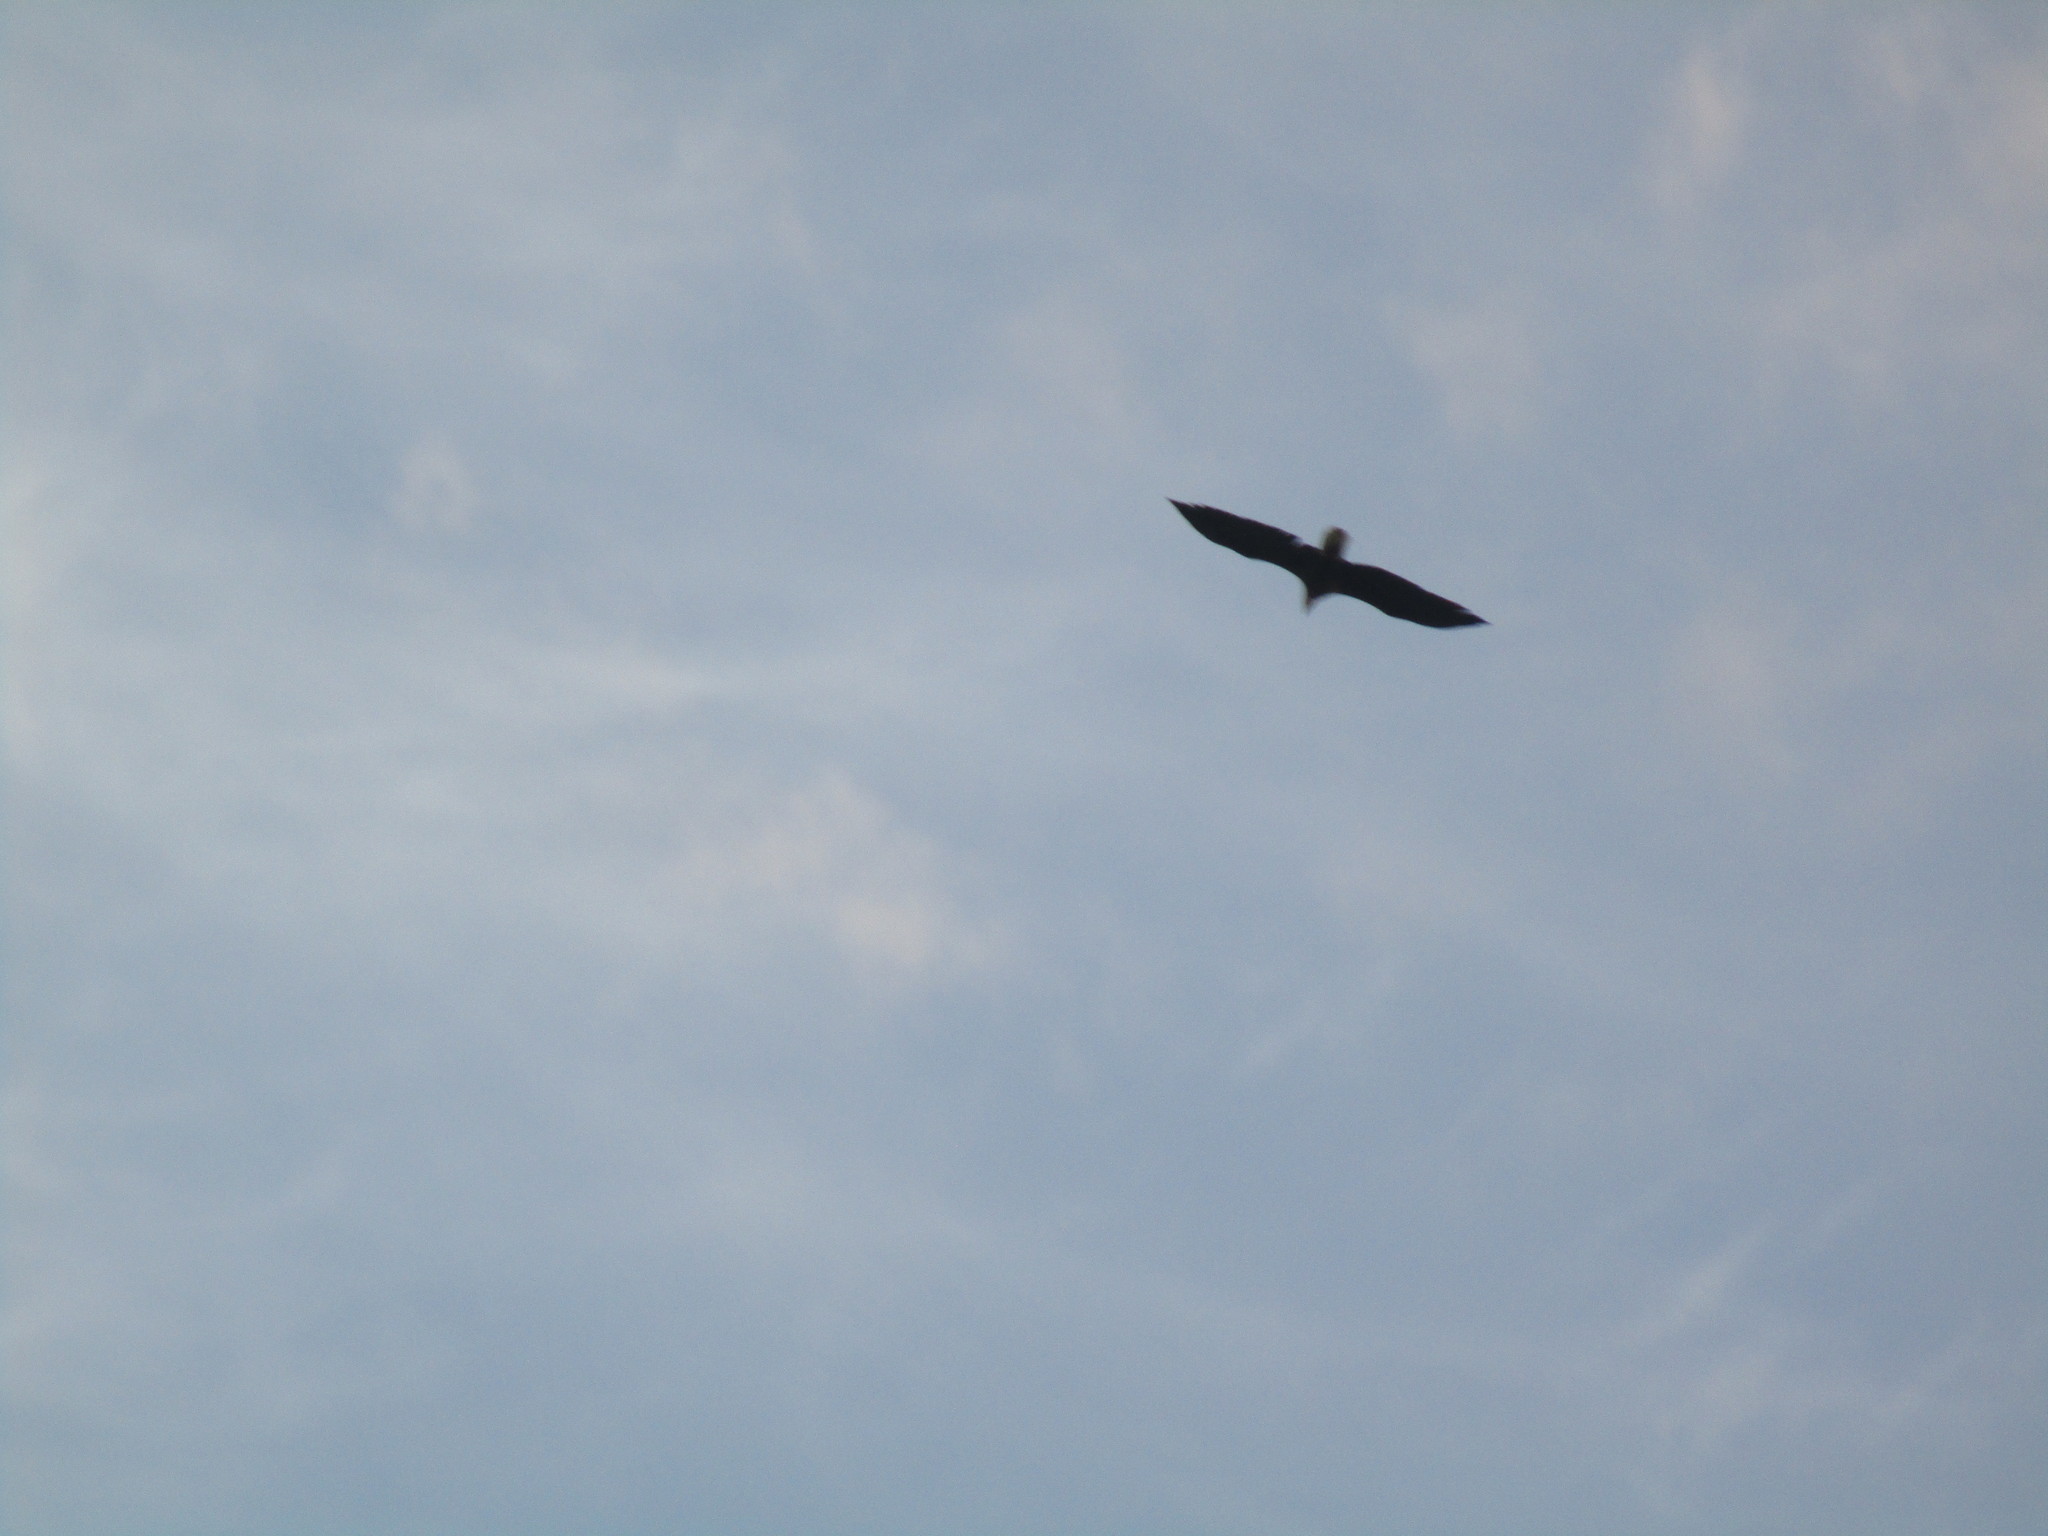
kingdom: Animalia
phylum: Chordata
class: Aves
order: Accipitriformes
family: Accipitridae
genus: Haliaeetus
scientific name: Haliaeetus leucocephalus
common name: Bald eagle
